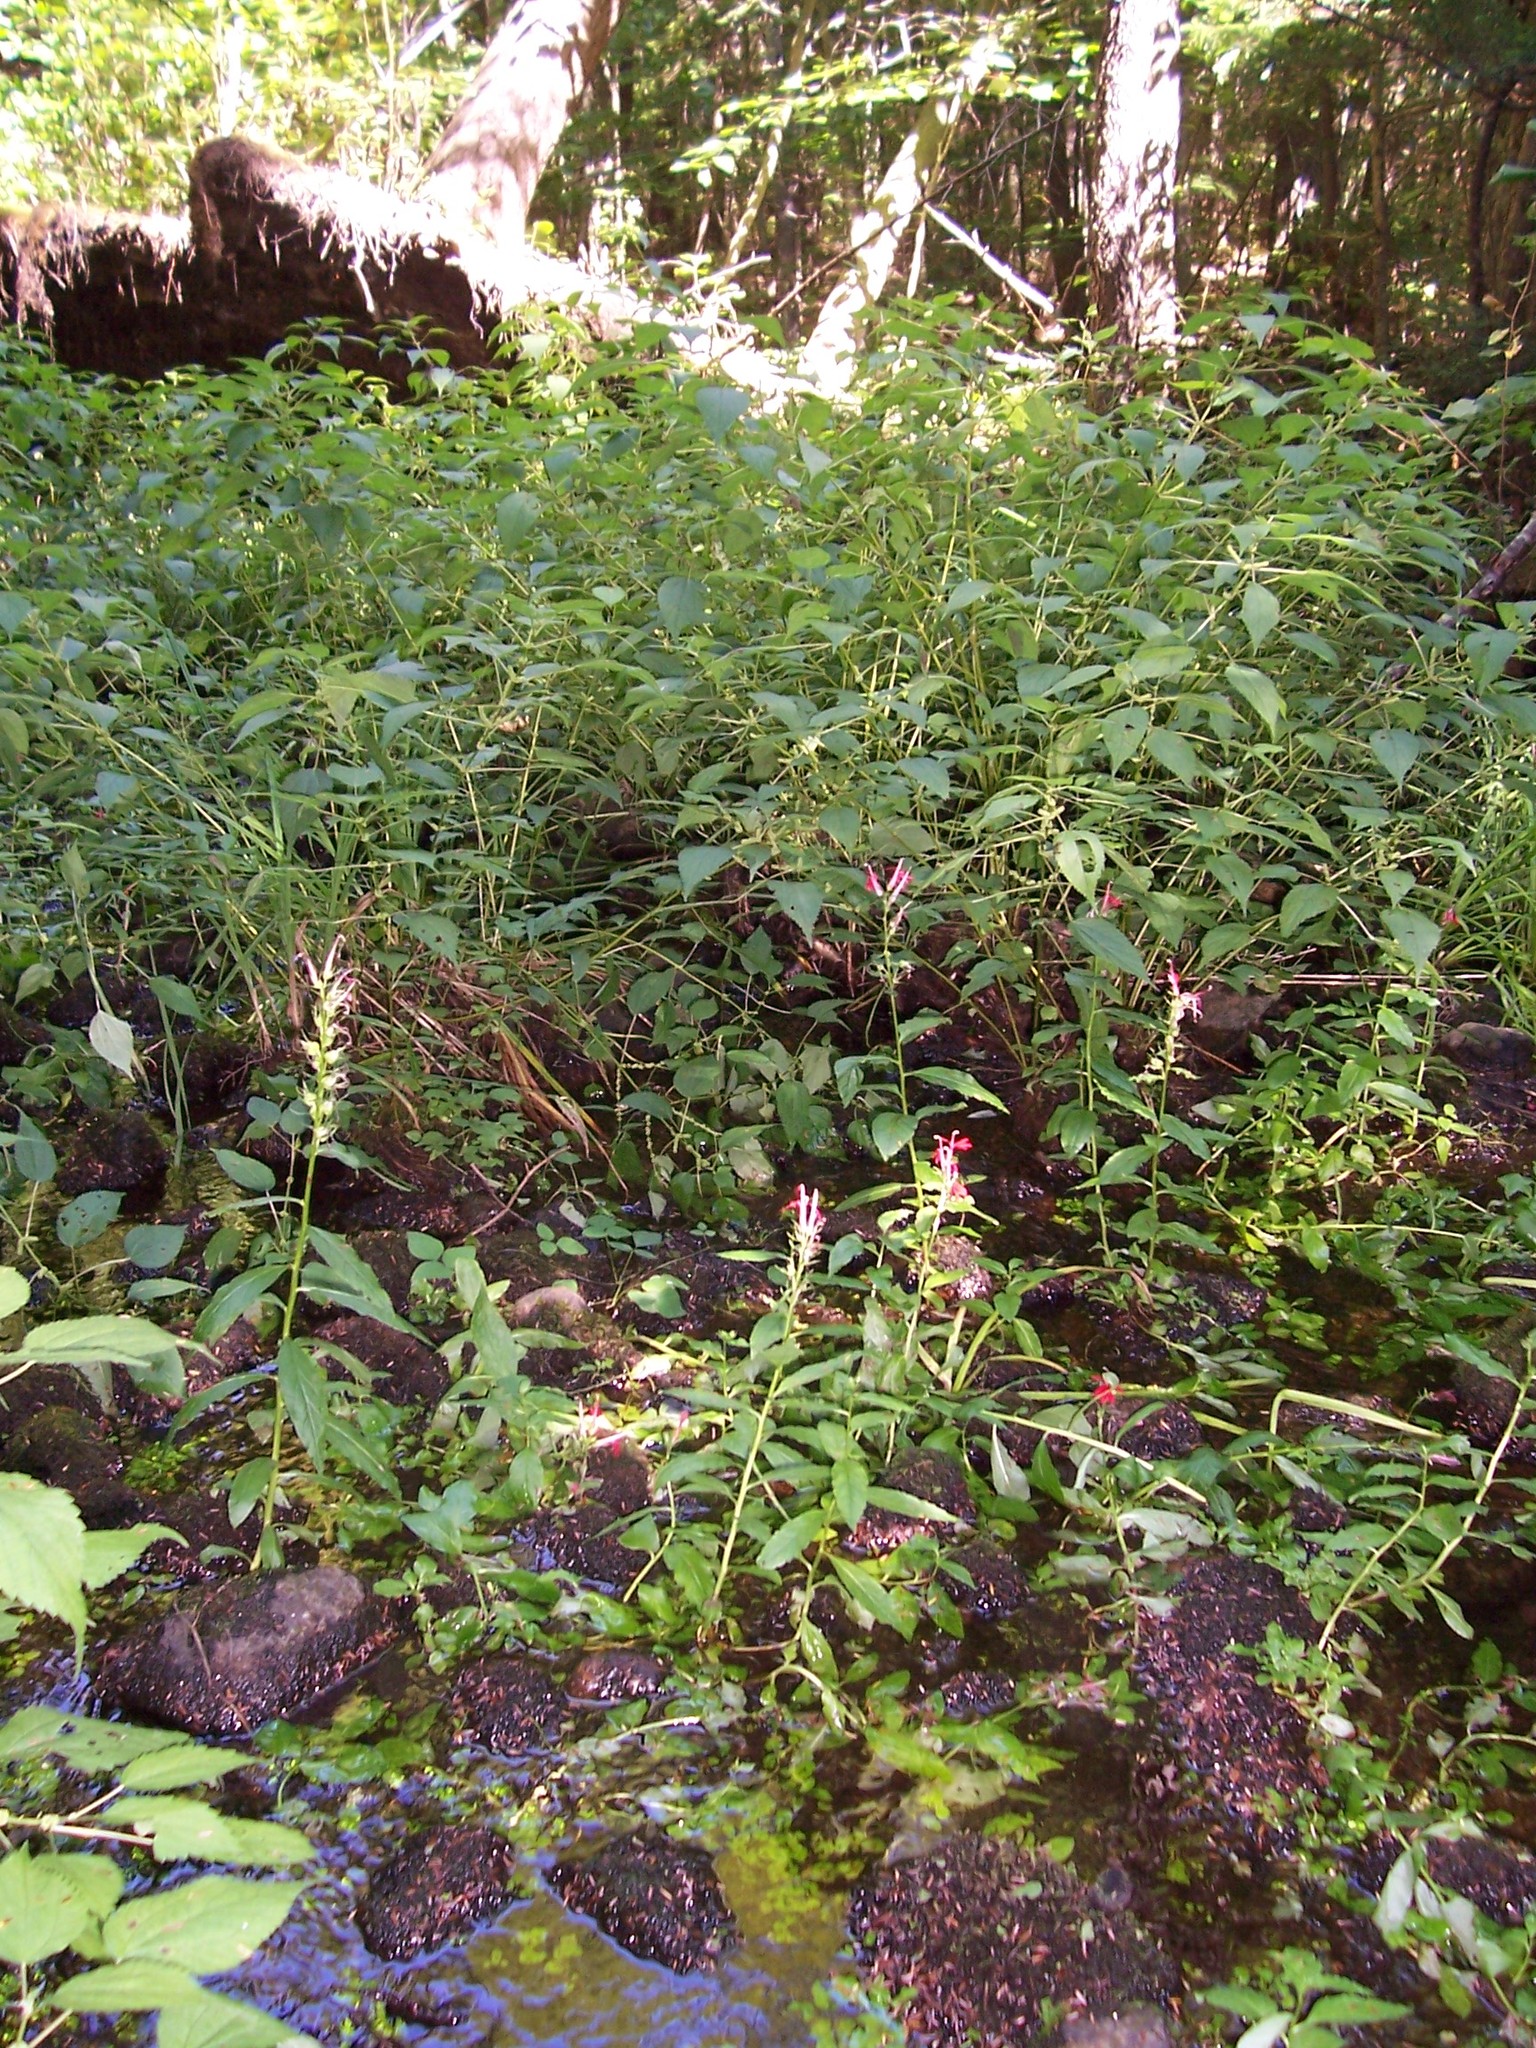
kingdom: Plantae
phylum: Tracheophyta
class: Magnoliopsida
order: Asterales
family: Campanulaceae
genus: Lobelia
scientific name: Lobelia cardinalis
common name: Cardinal flower
